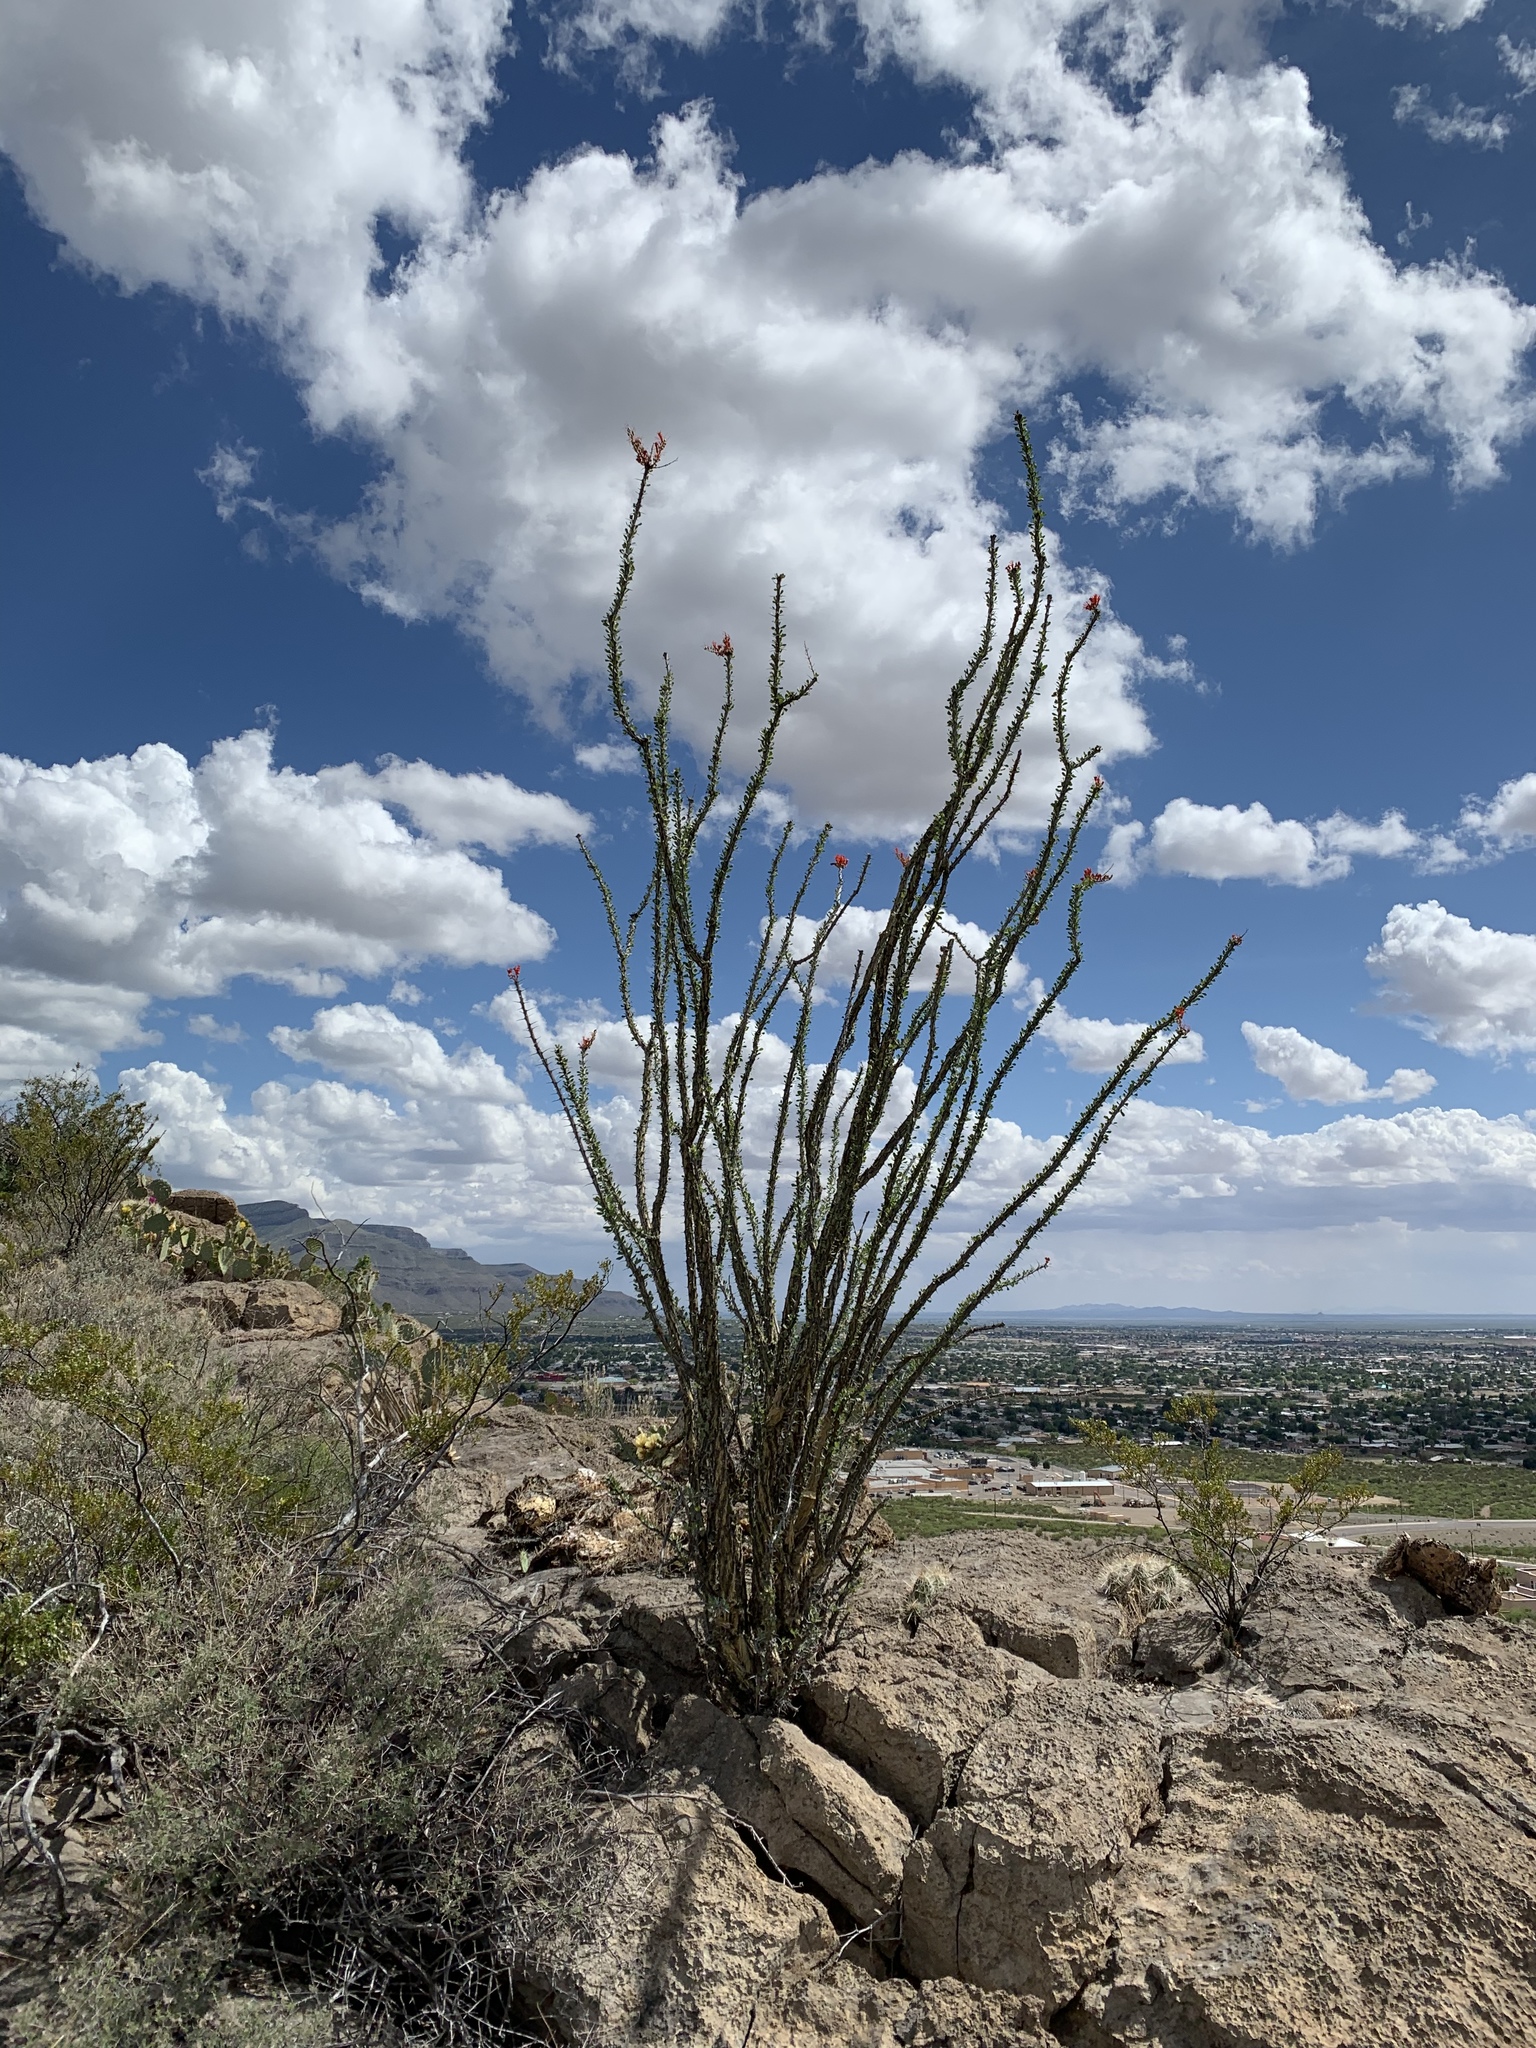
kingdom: Plantae
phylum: Tracheophyta
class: Magnoliopsida
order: Ericales
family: Fouquieriaceae
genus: Fouquieria
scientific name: Fouquieria splendens
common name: Vine-cactus
